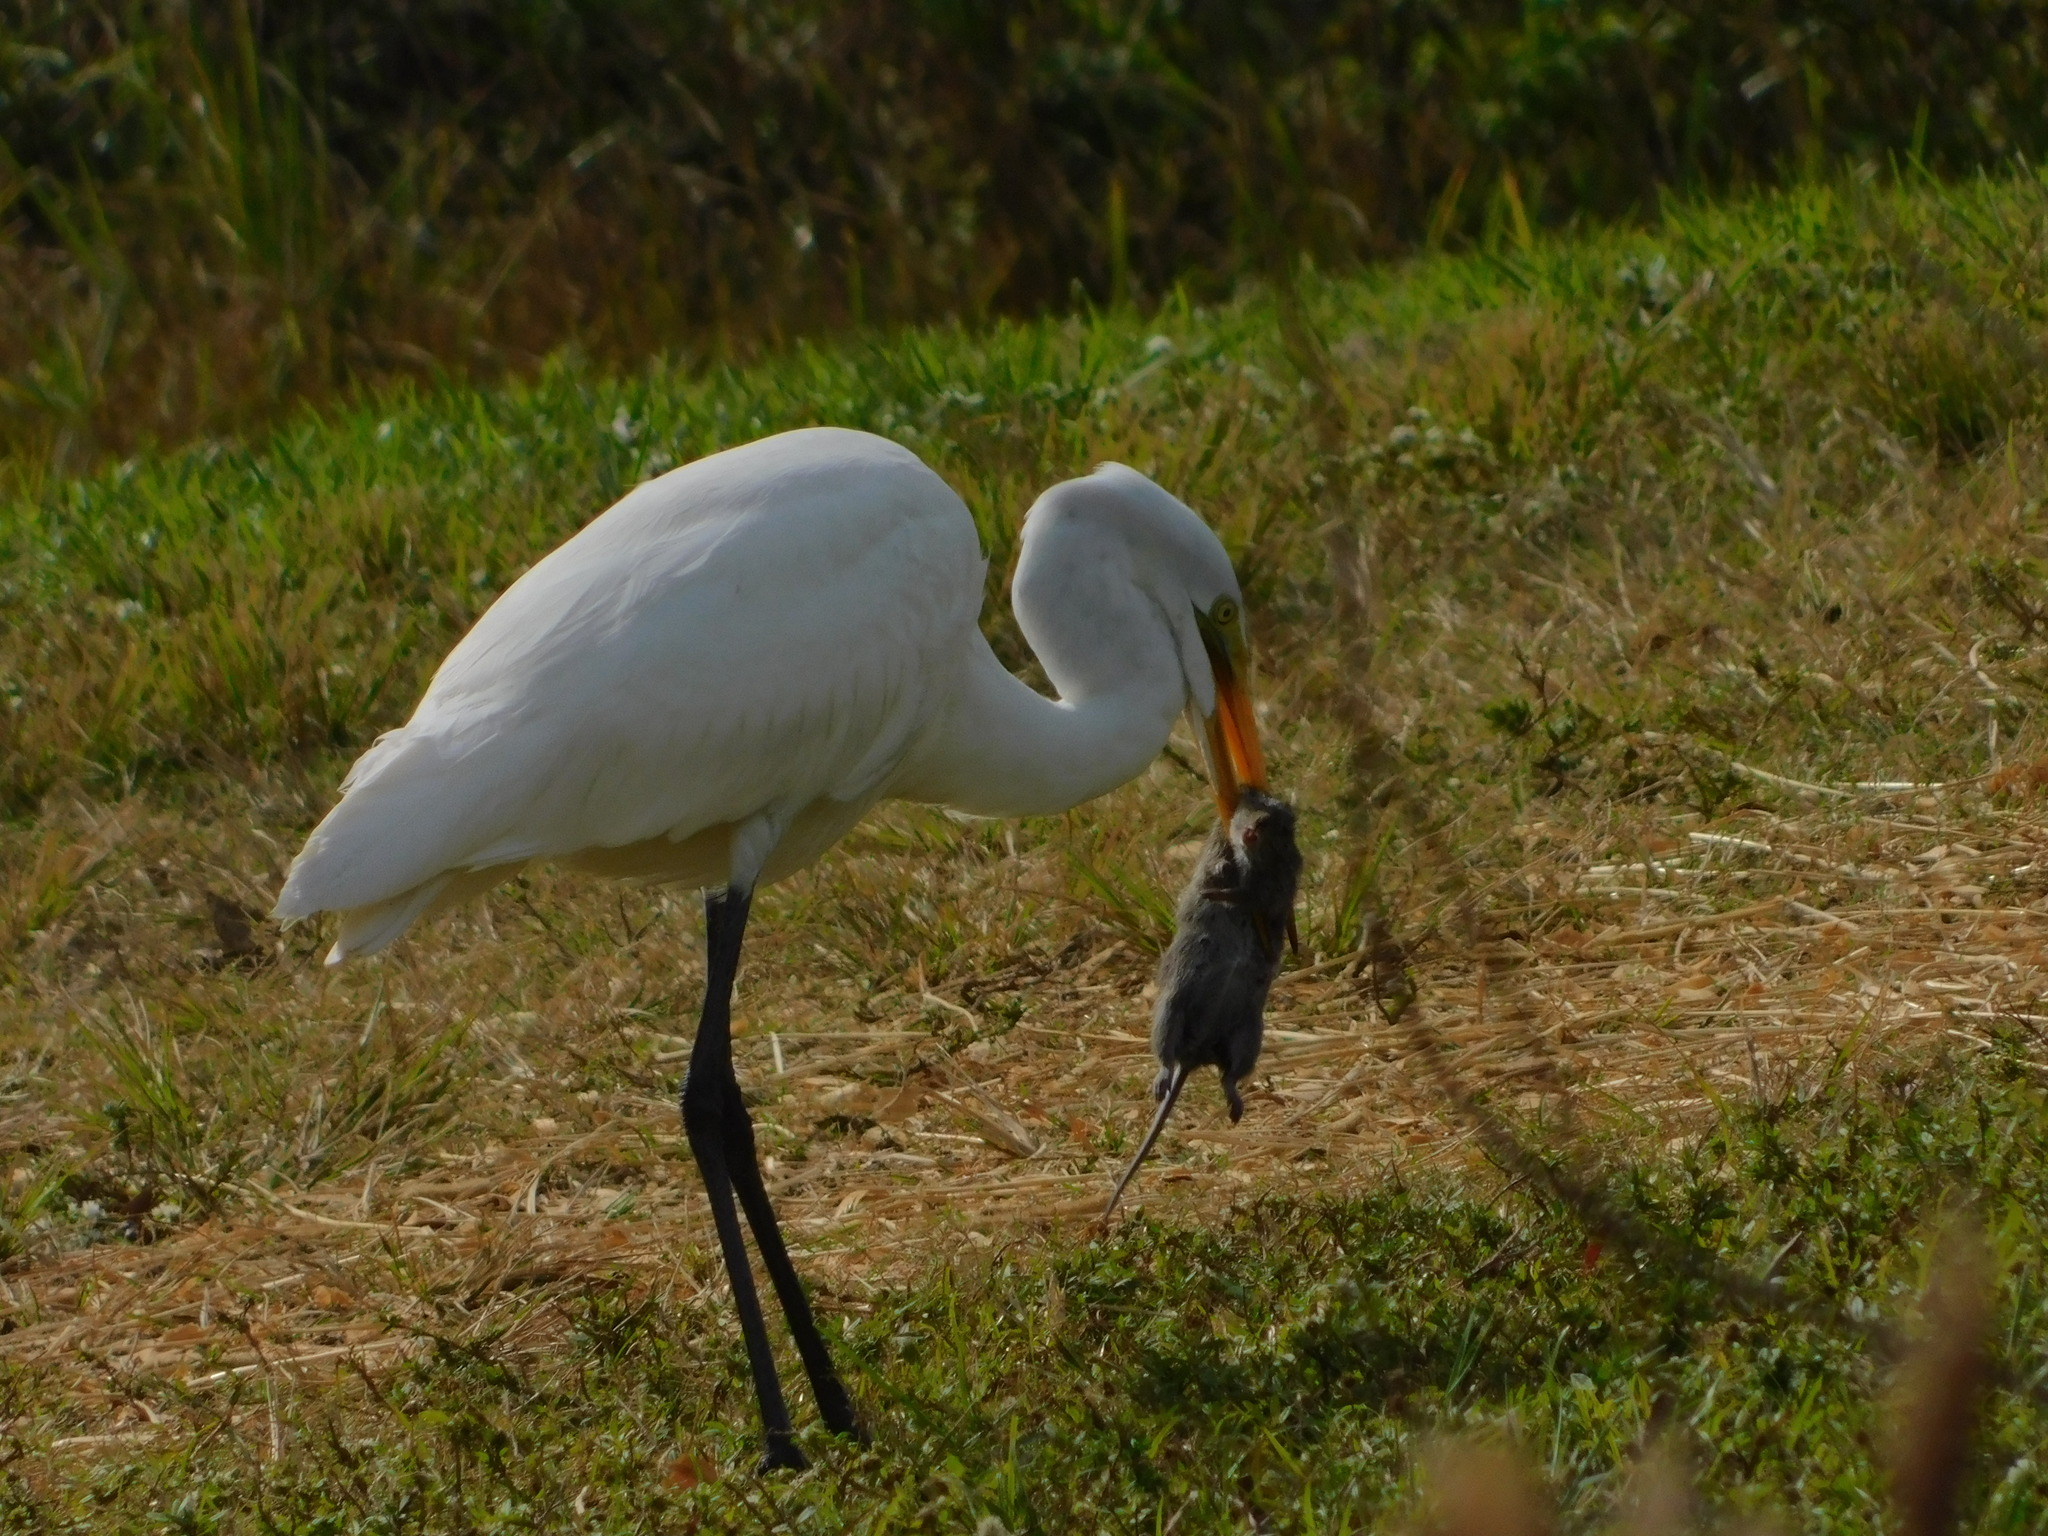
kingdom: Animalia
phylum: Chordata
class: Mammalia
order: Rodentia
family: Cricetidae
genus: Sigmodon
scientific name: Sigmodon hispidus
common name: Hispid cotton rat
